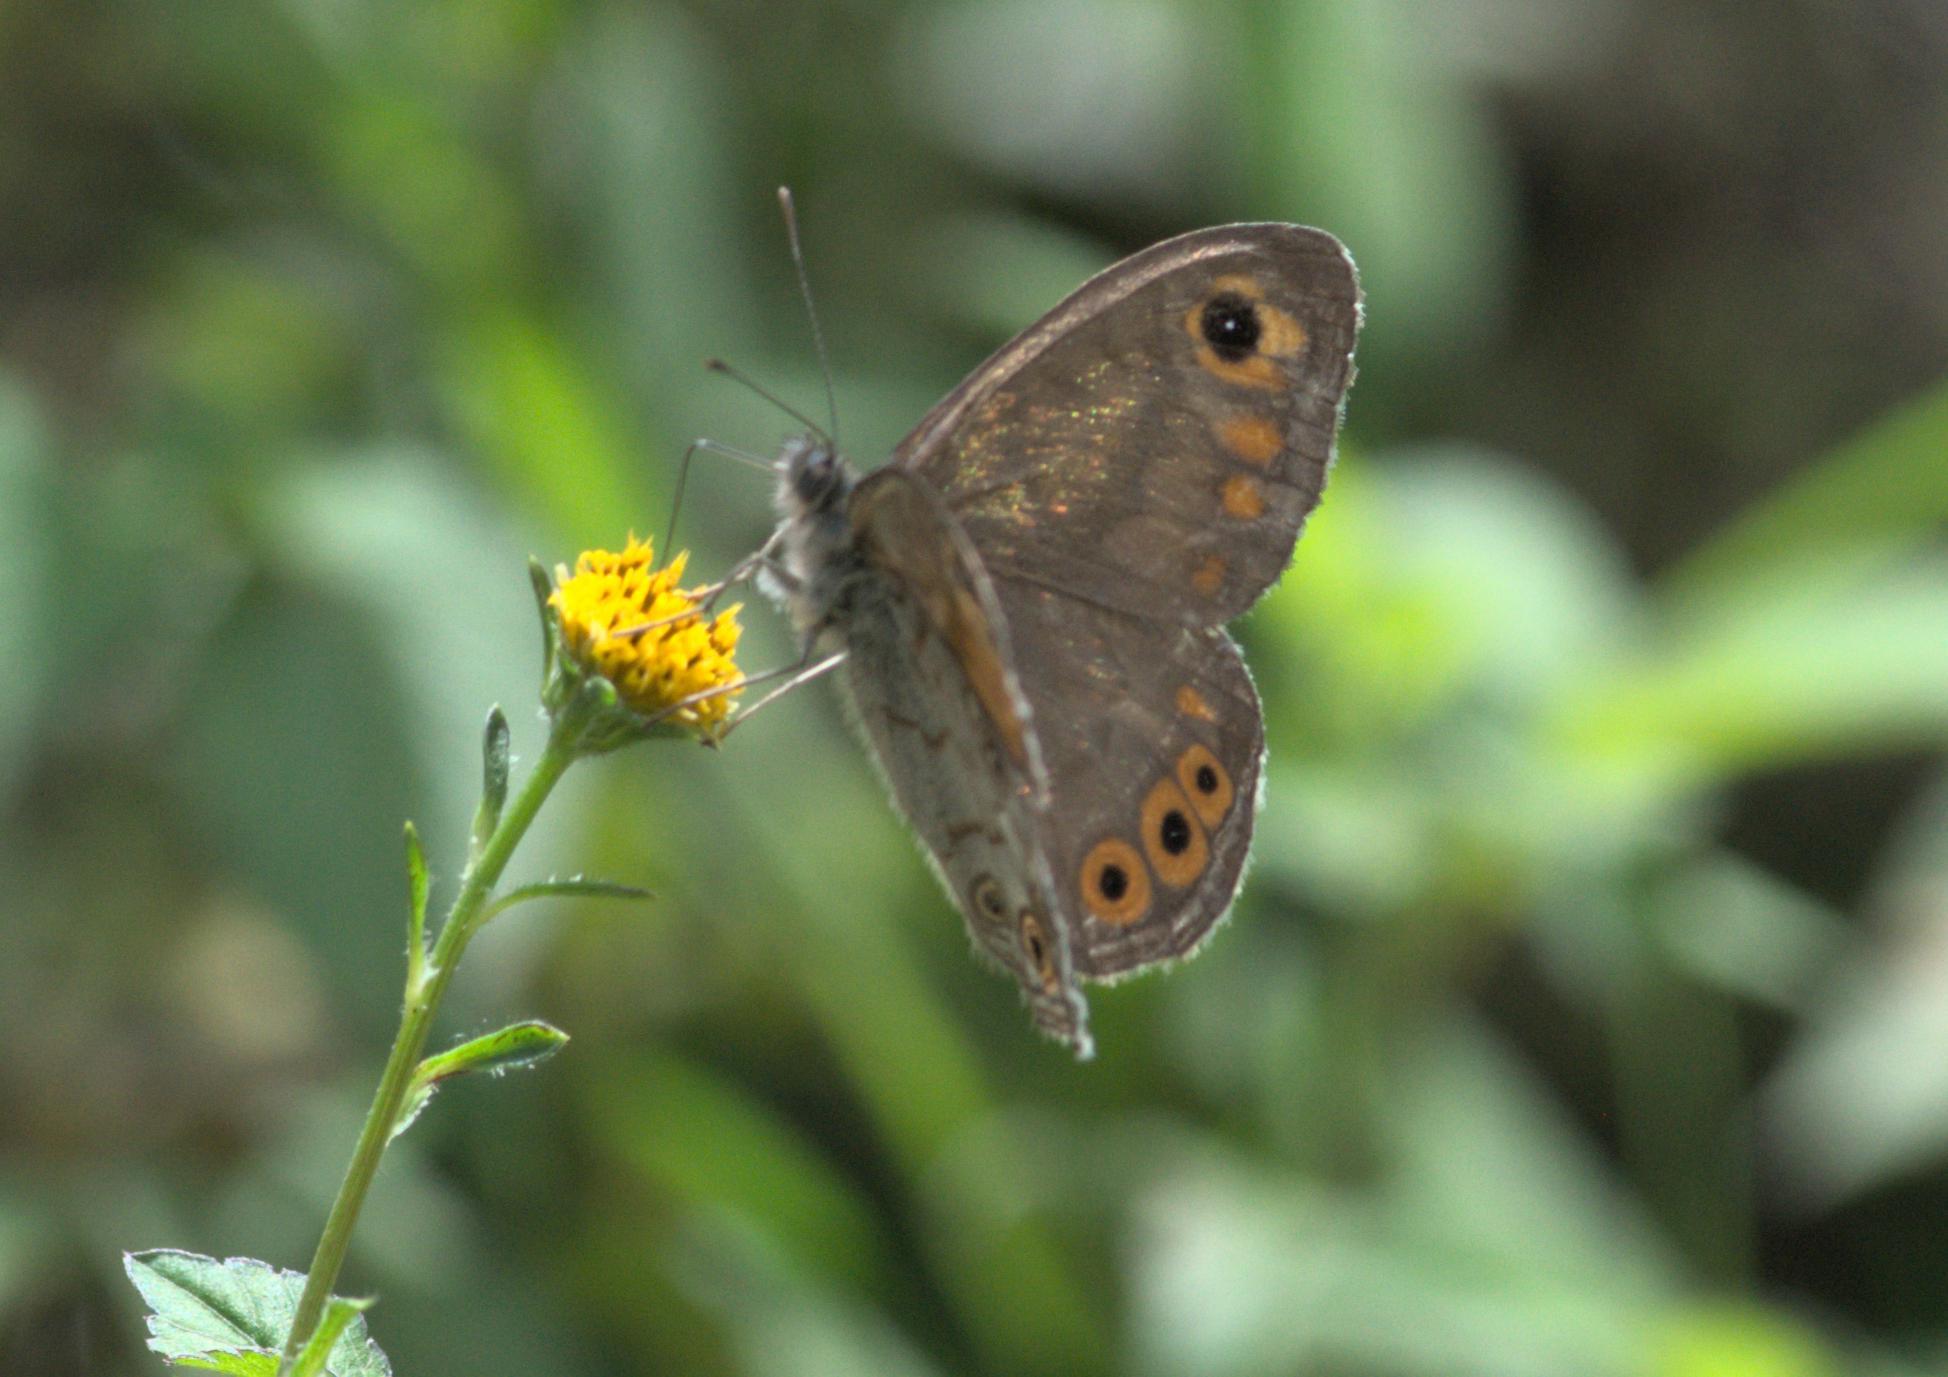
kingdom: Animalia
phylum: Arthropoda
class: Insecta
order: Lepidoptera
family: Nymphalidae
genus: Pararge
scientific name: Pararge Lasiommata schakra
